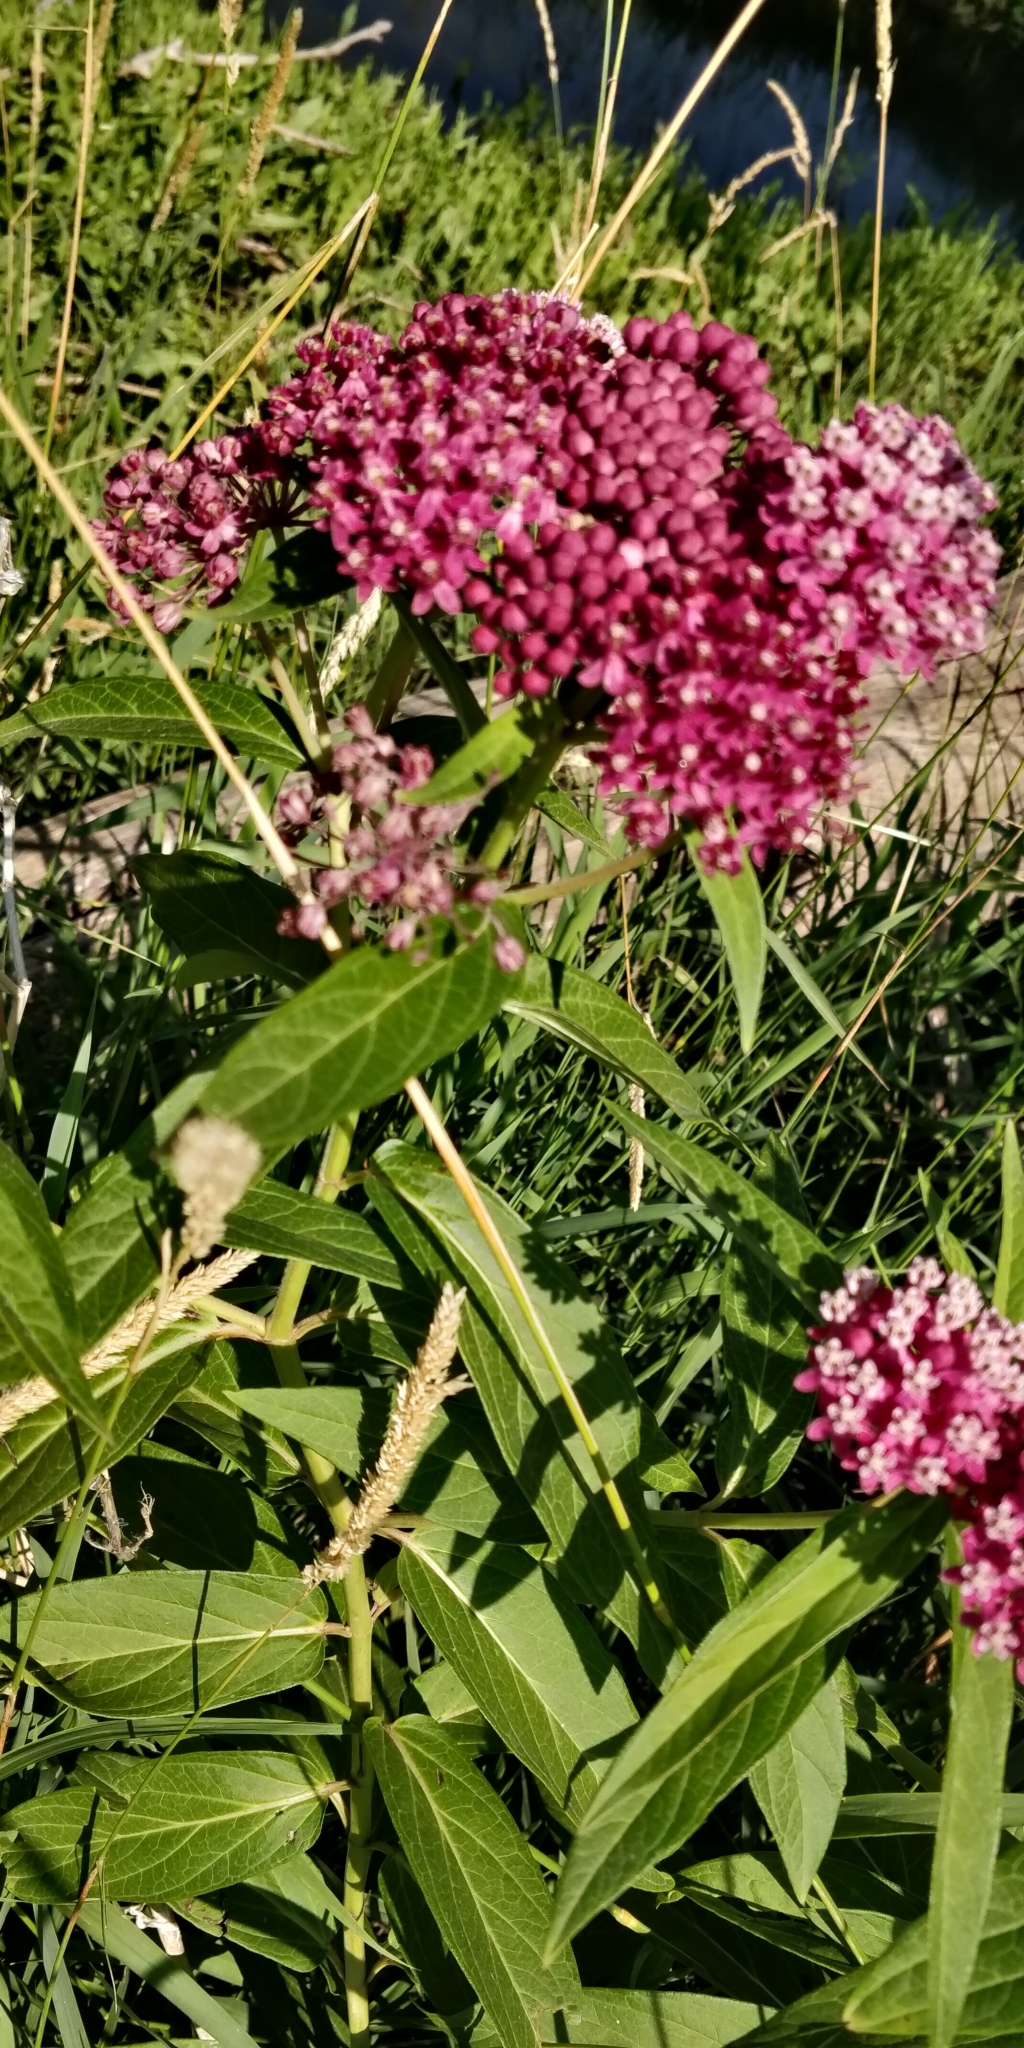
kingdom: Plantae
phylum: Tracheophyta
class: Magnoliopsida
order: Gentianales
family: Apocynaceae
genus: Asclepias
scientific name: Asclepias incarnata
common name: Swamp milkweed
